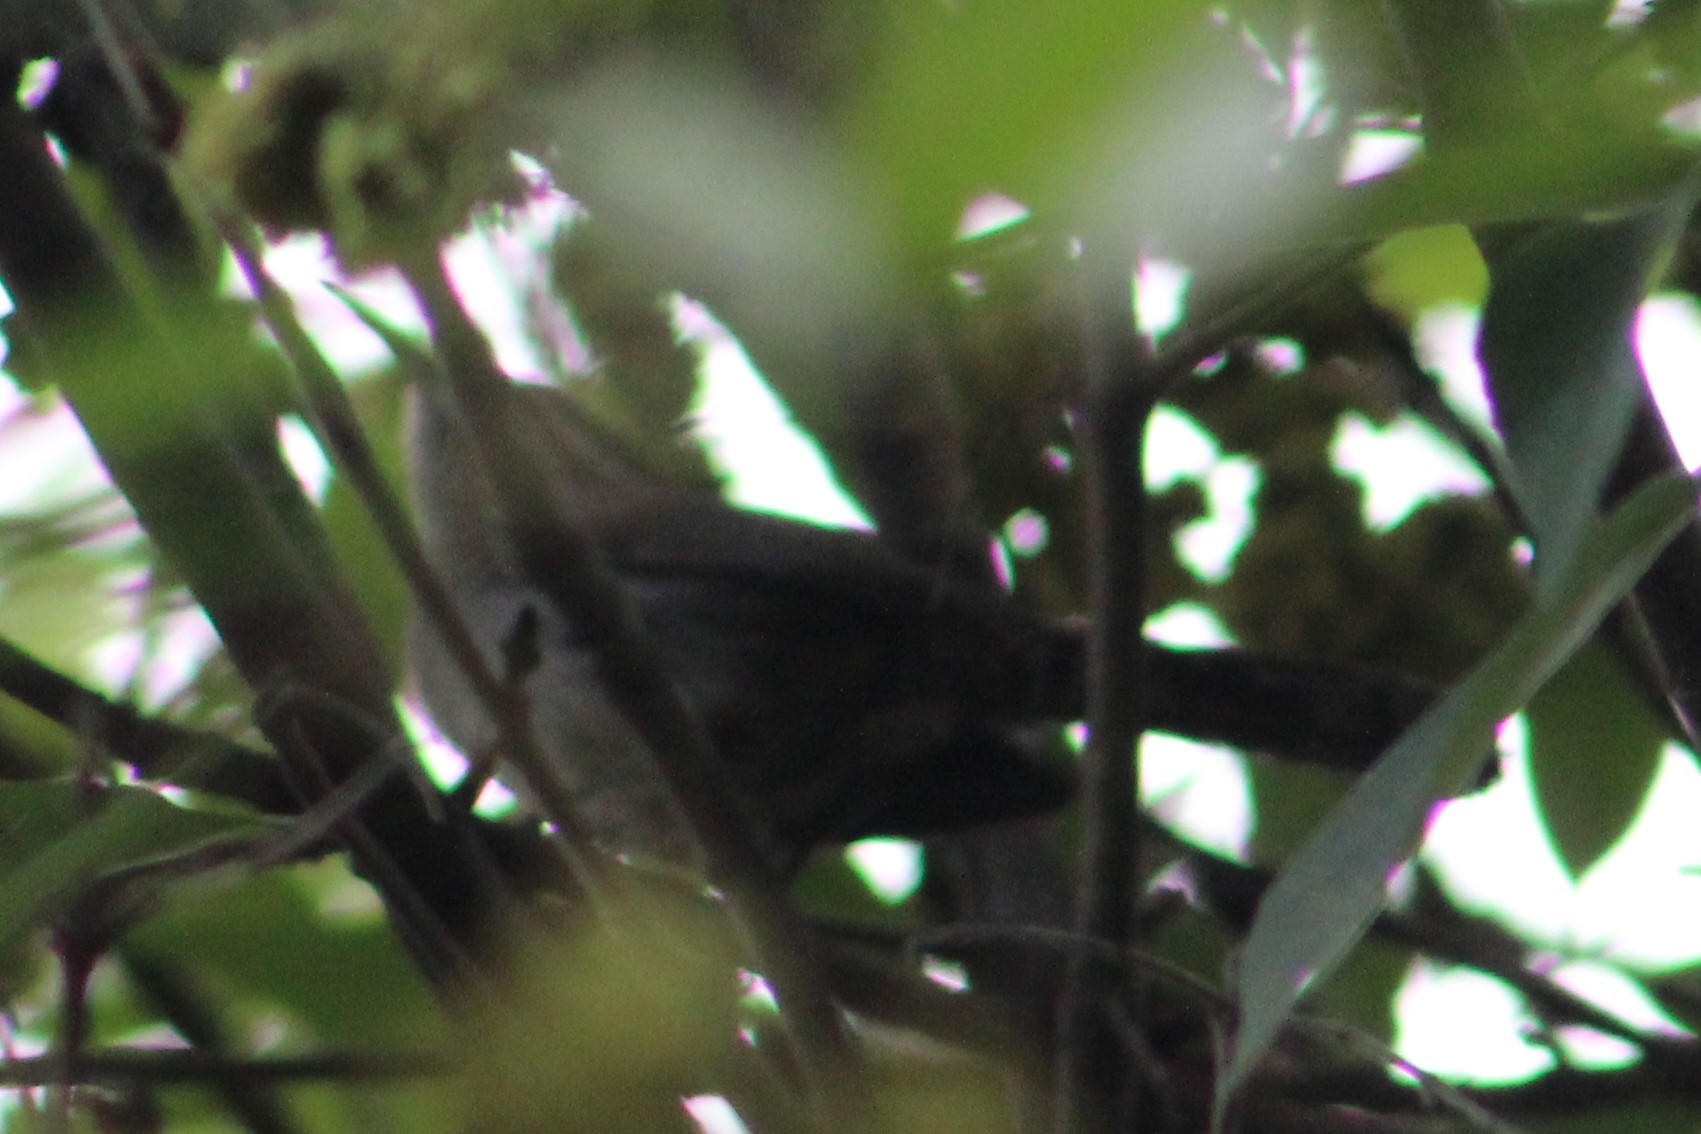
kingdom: Animalia
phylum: Chordata
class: Aves
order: Passeriformes
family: Troglodytidae
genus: Thryomanes
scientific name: Thryomanes bewickii
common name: Bewick's wren
